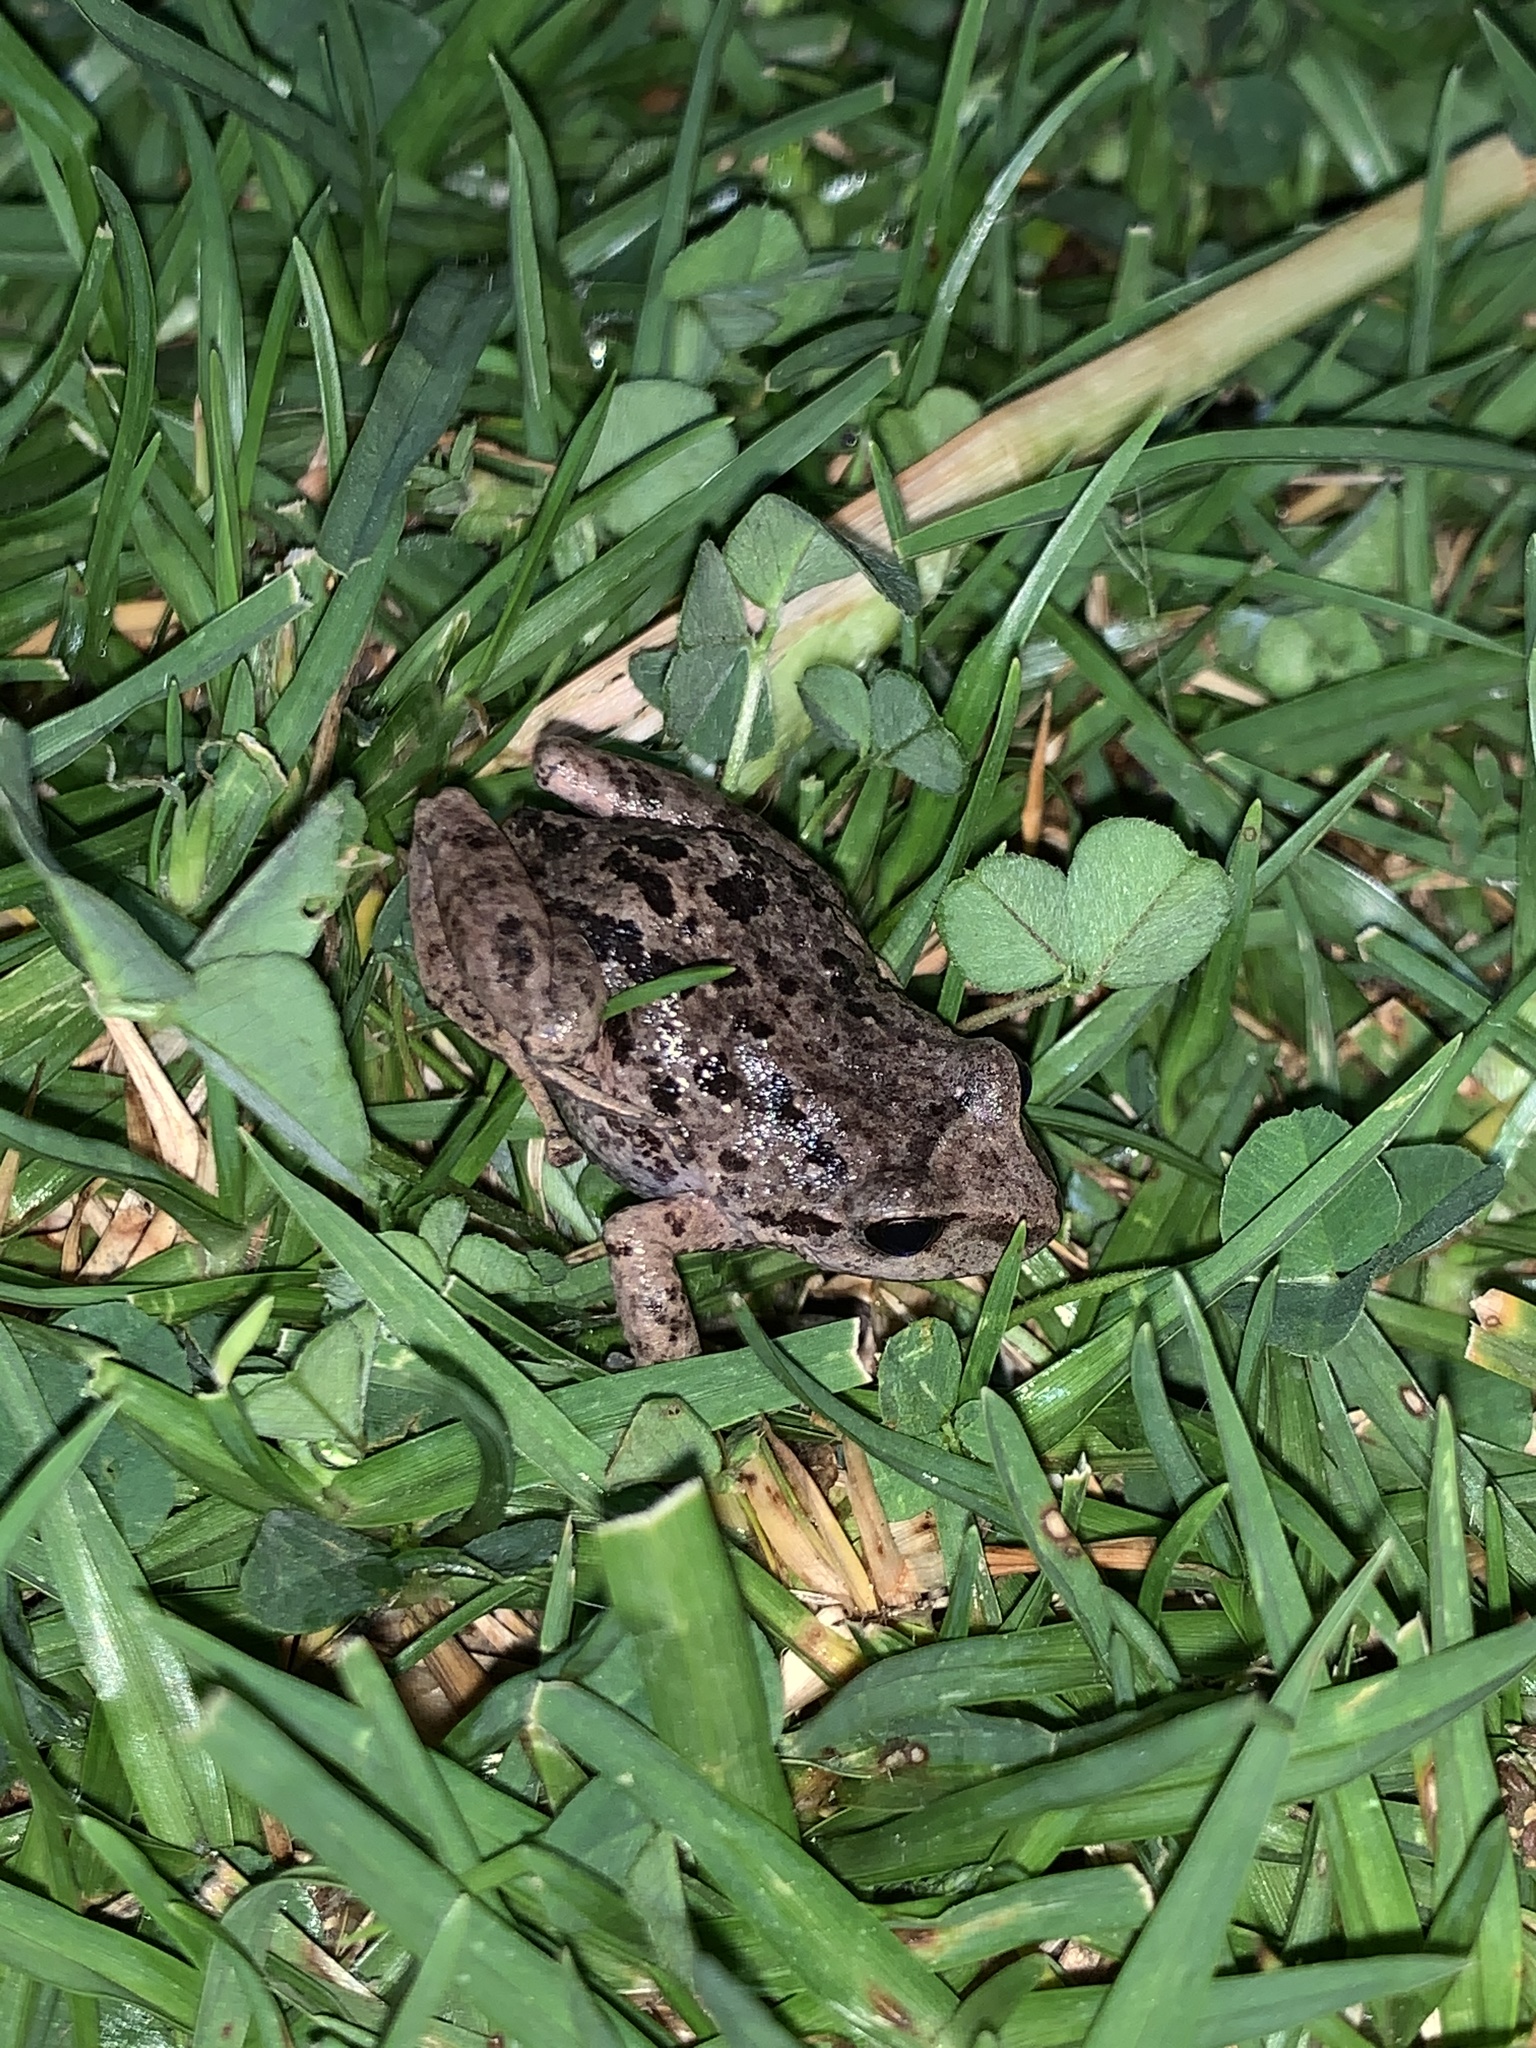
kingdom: Animalia
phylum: Chordata
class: Amphibia
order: Anura
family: Craugastoridae
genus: Pristimantis
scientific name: Pristimantis unistrigatus
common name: Striped robber frog
